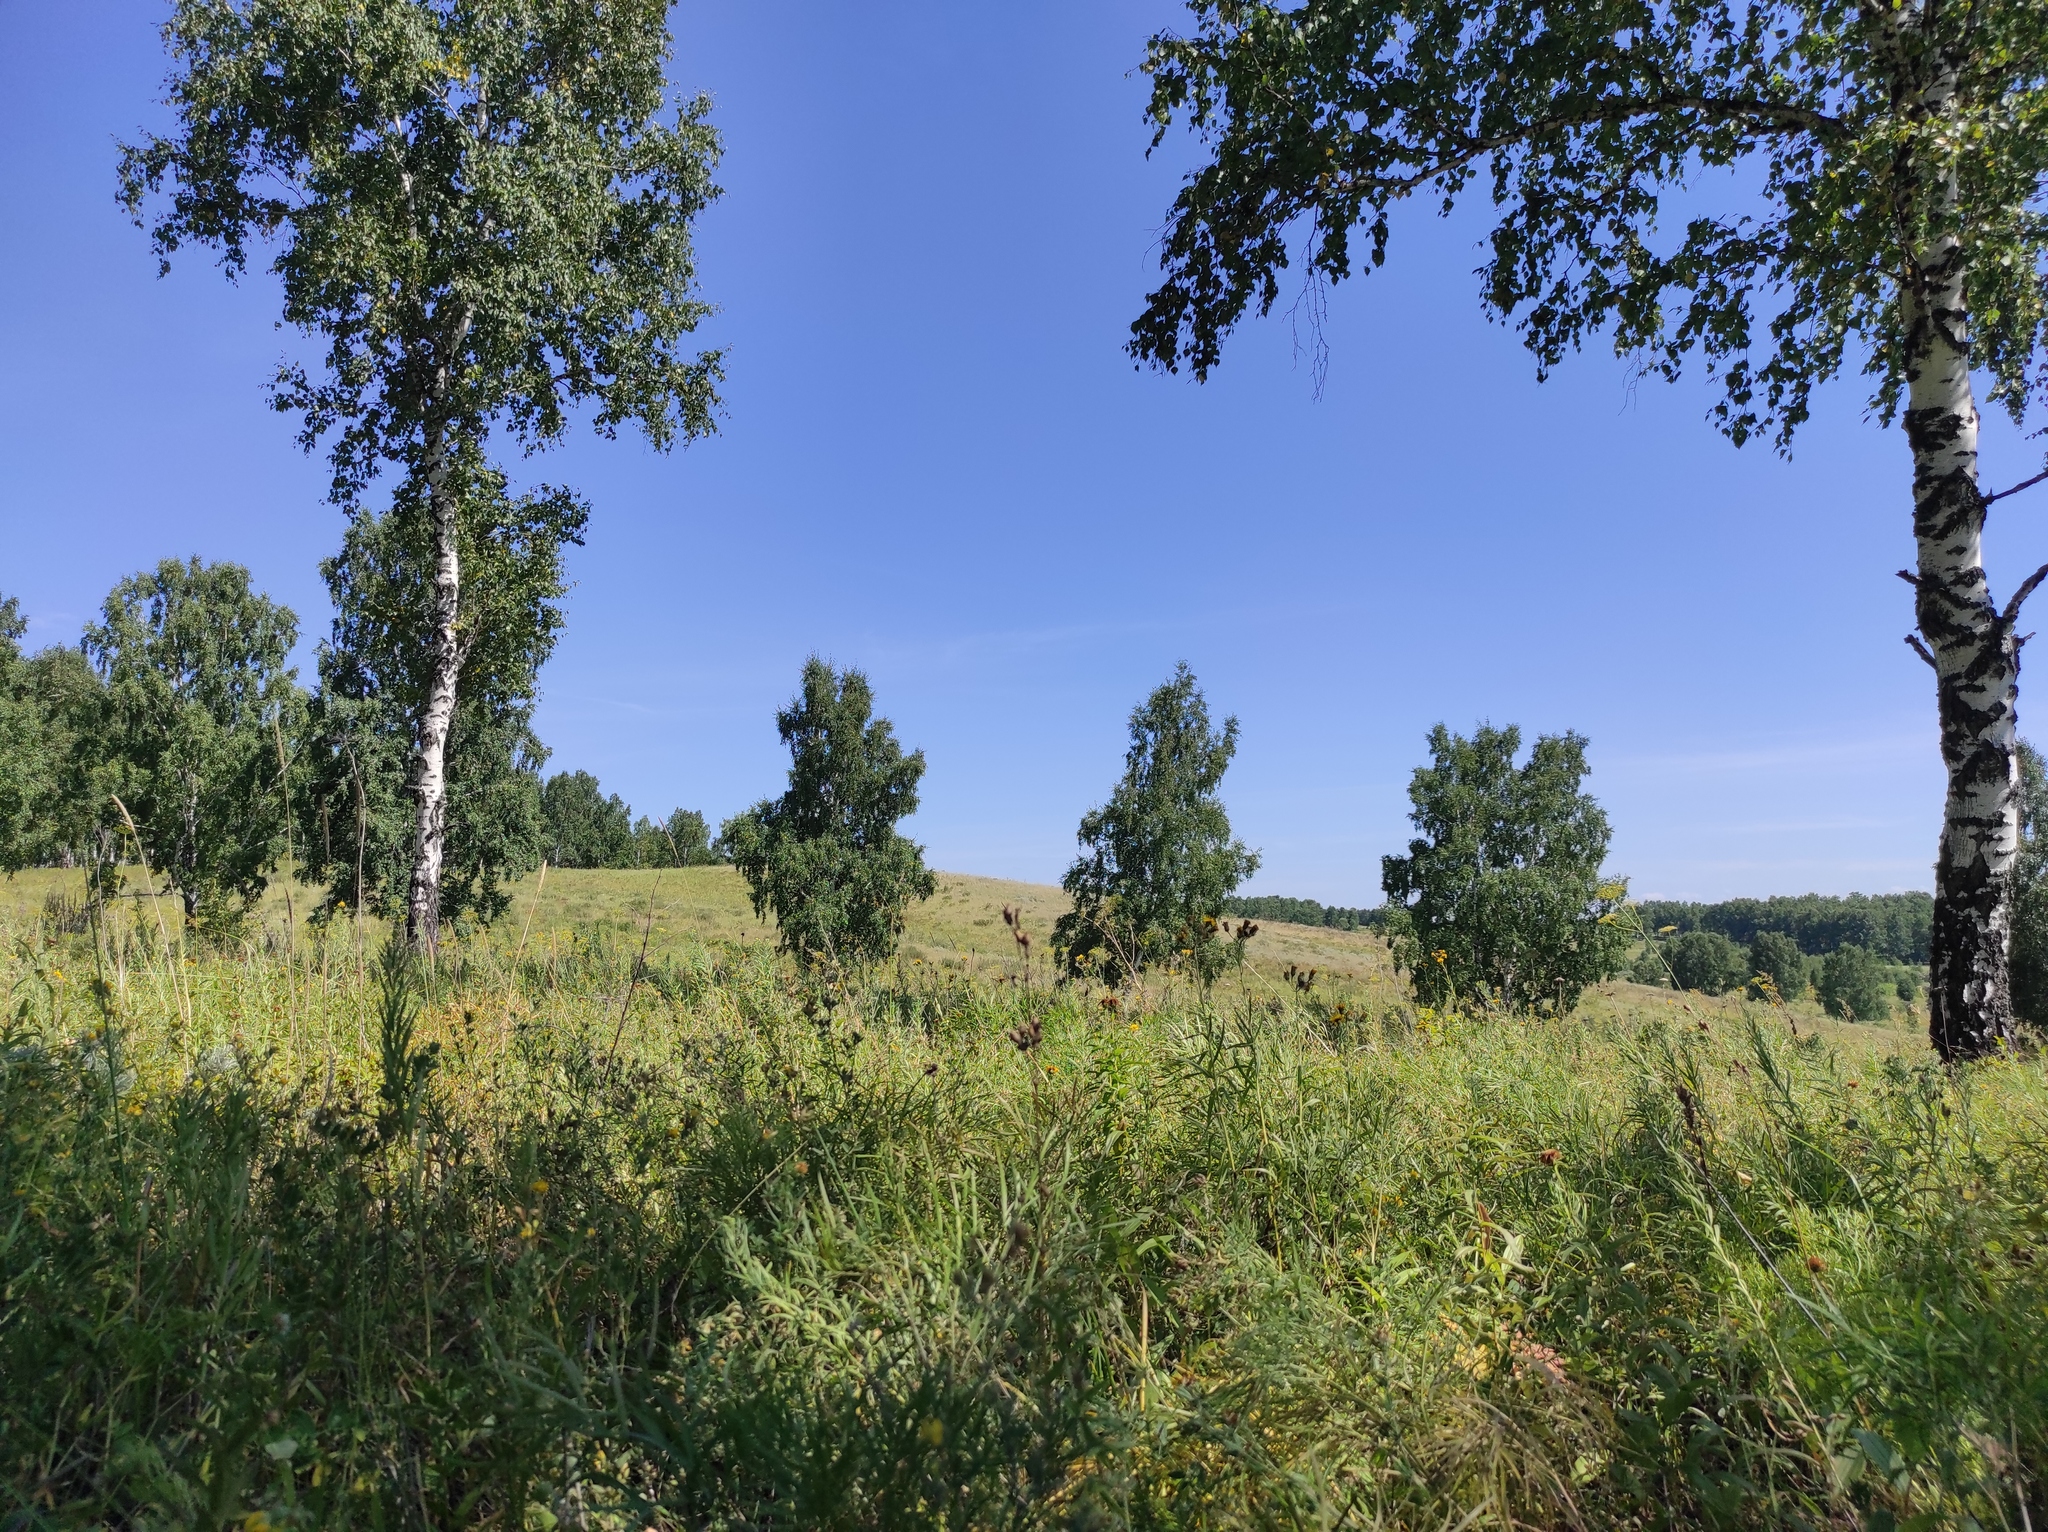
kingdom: Plantae
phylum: Tracheophyta
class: Magnoliopsida
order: Fagales
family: Betulaceae
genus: Betula
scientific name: Betula pendula
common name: Silver birch
